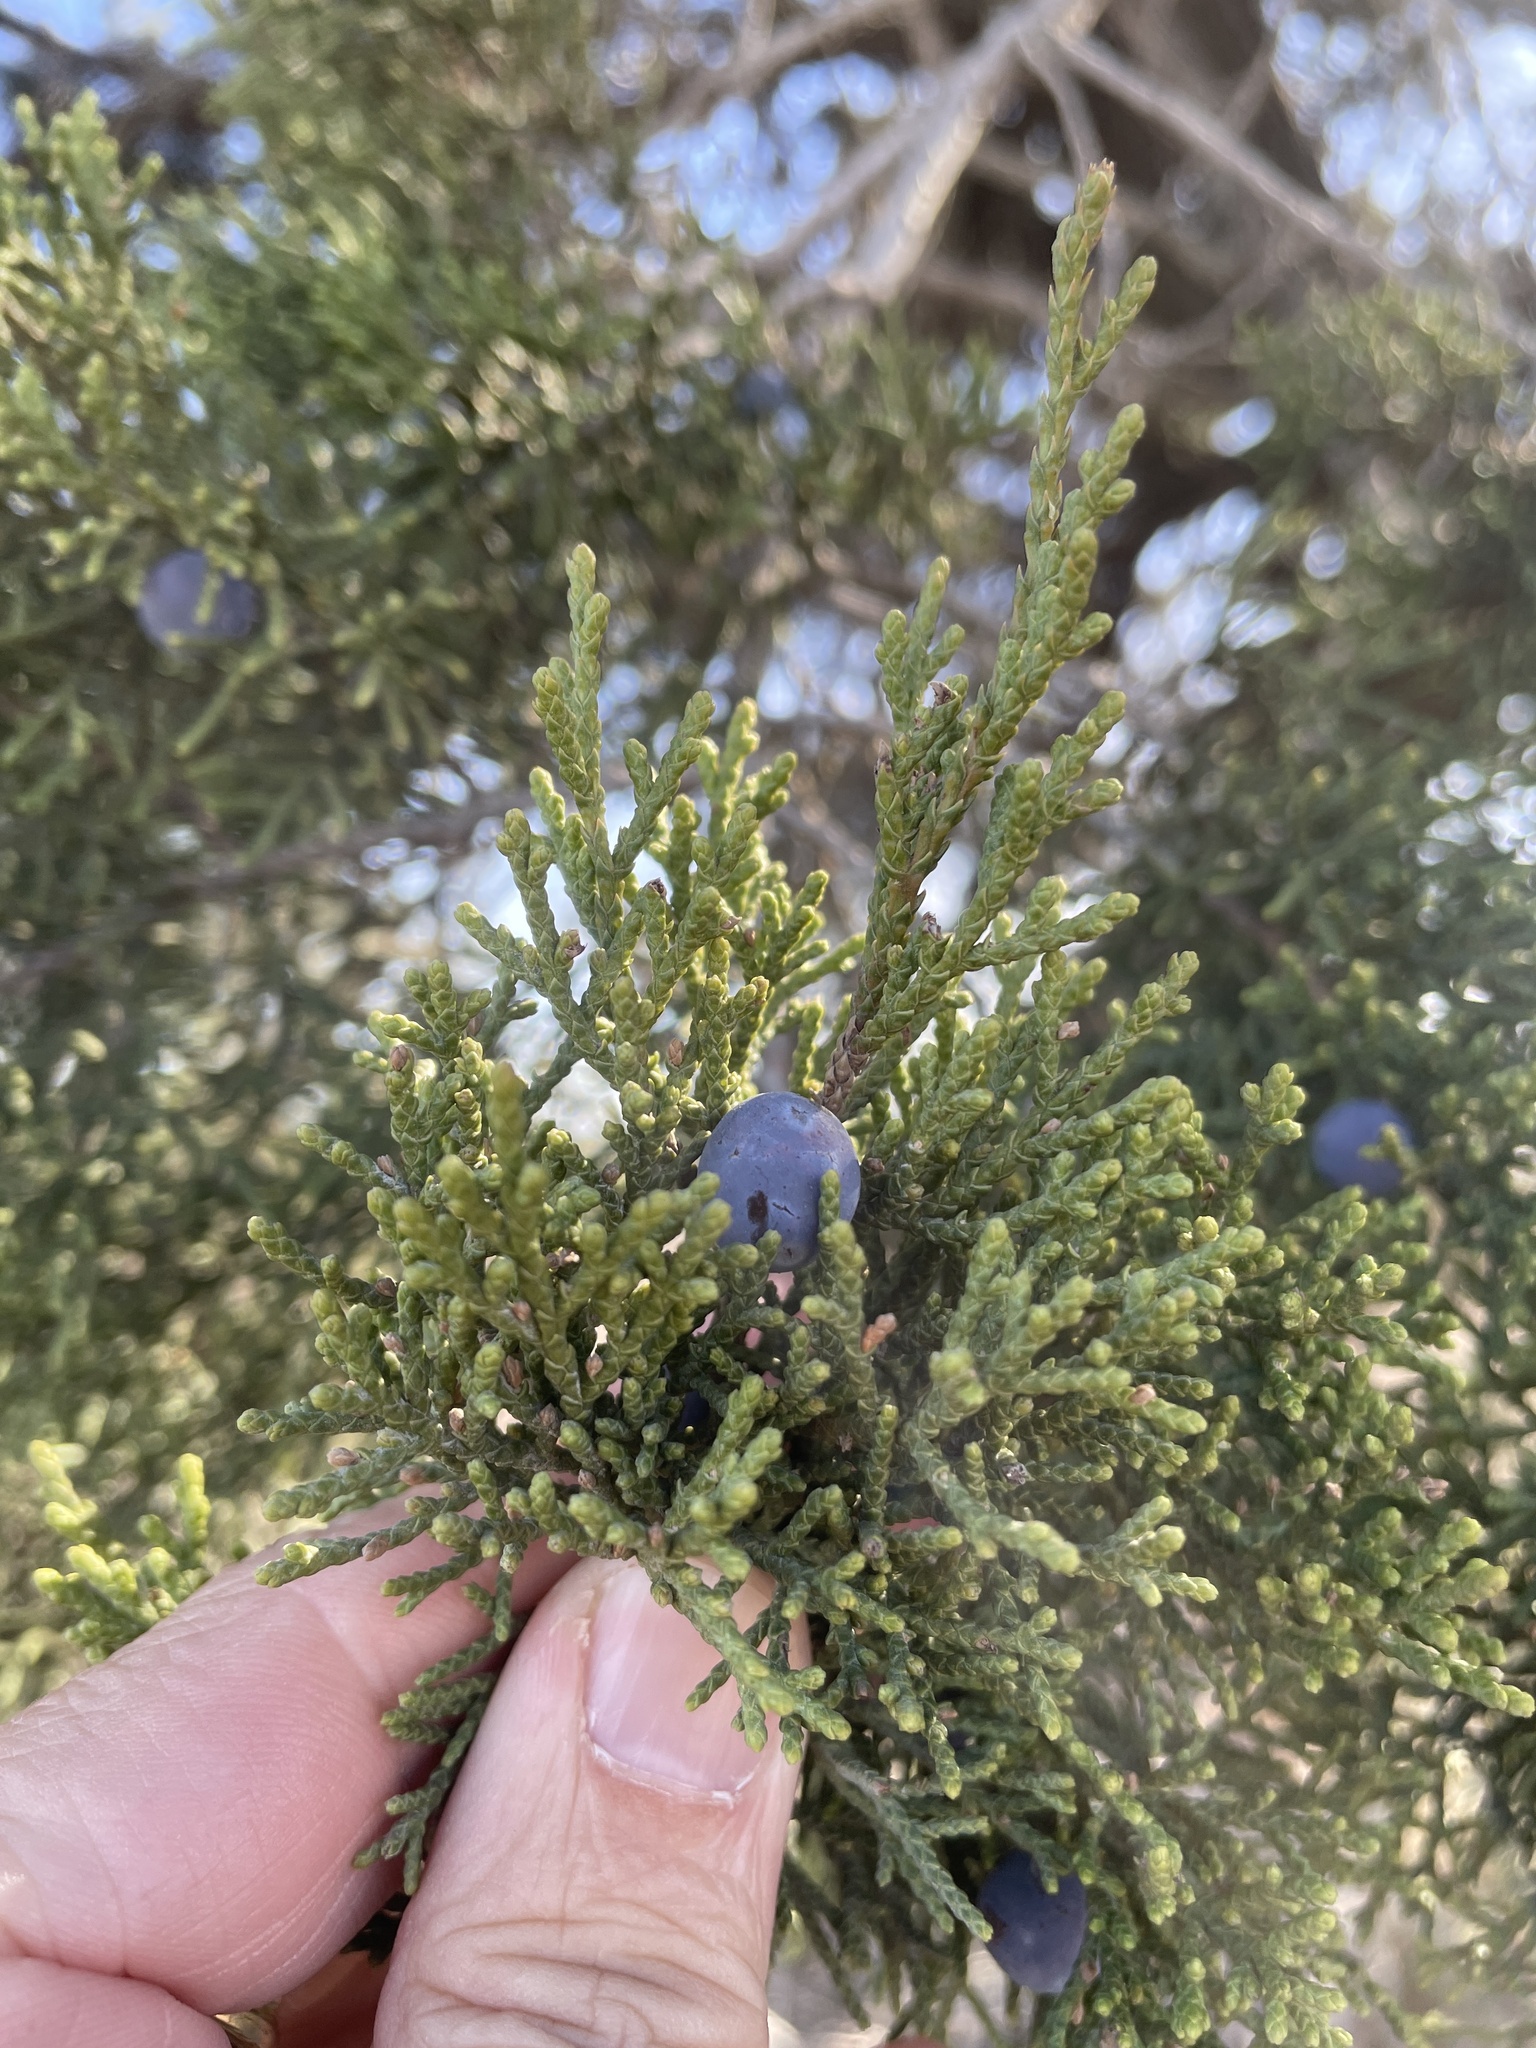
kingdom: Plantae
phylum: Tracheophyta
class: Pinopsida
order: Pinales
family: Cupressaceae
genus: Juniperus
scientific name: Juniperus ashei
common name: Mexican juniper
